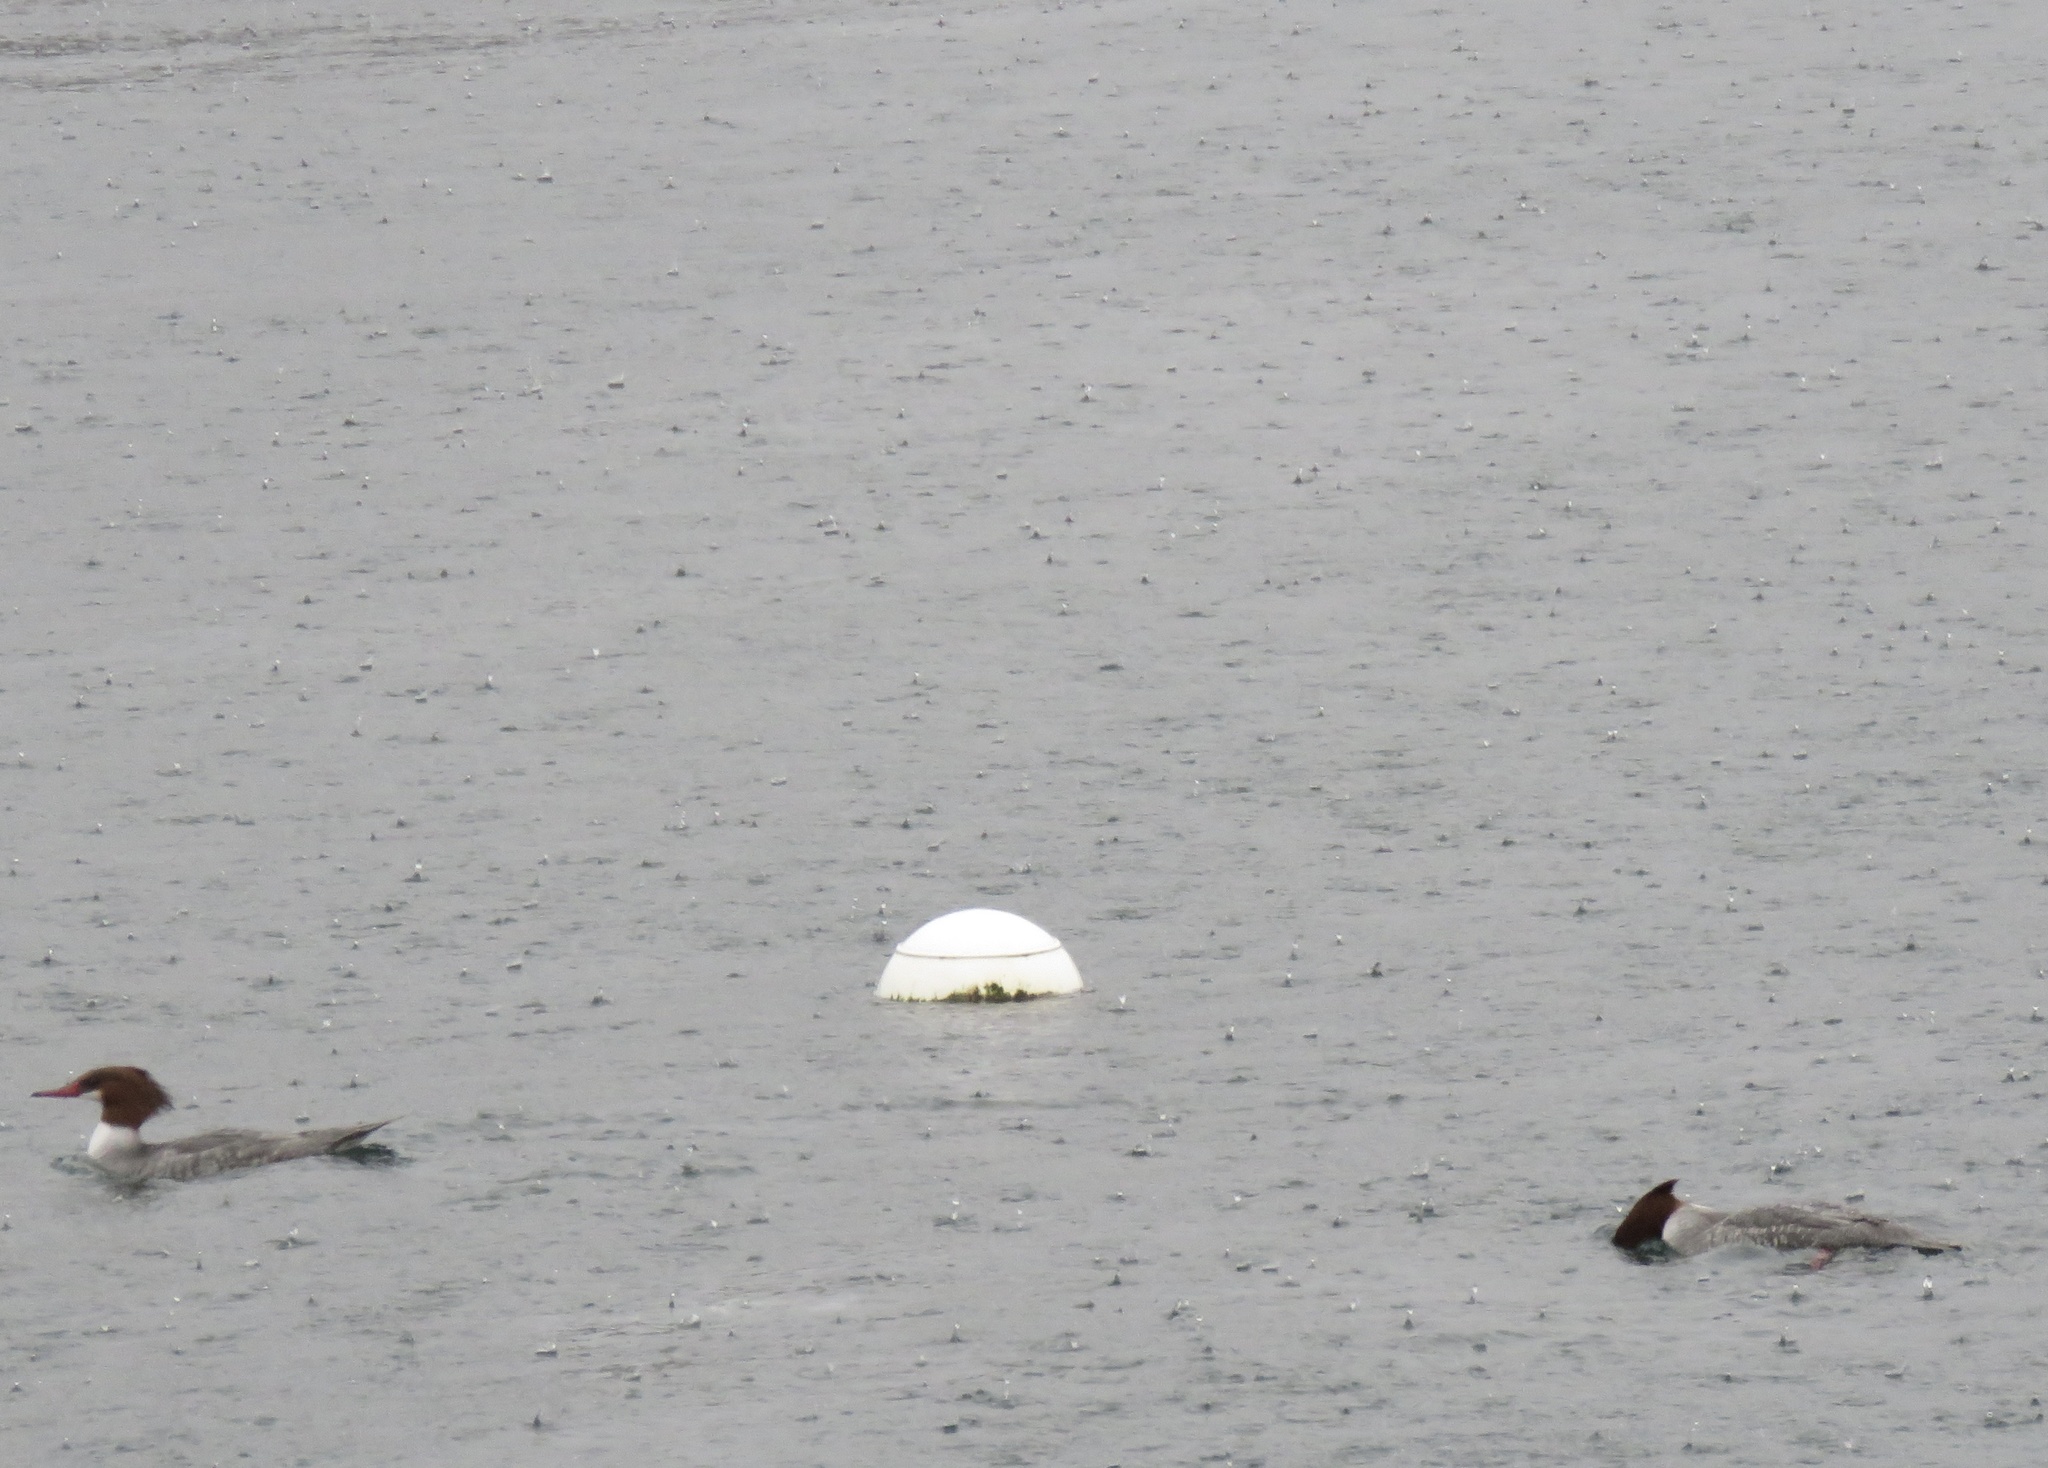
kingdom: Animalia
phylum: Chordata
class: Aves
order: Anseriformes
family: Anatidae
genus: Mergus
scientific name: Mergus merganser
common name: Common merganser
